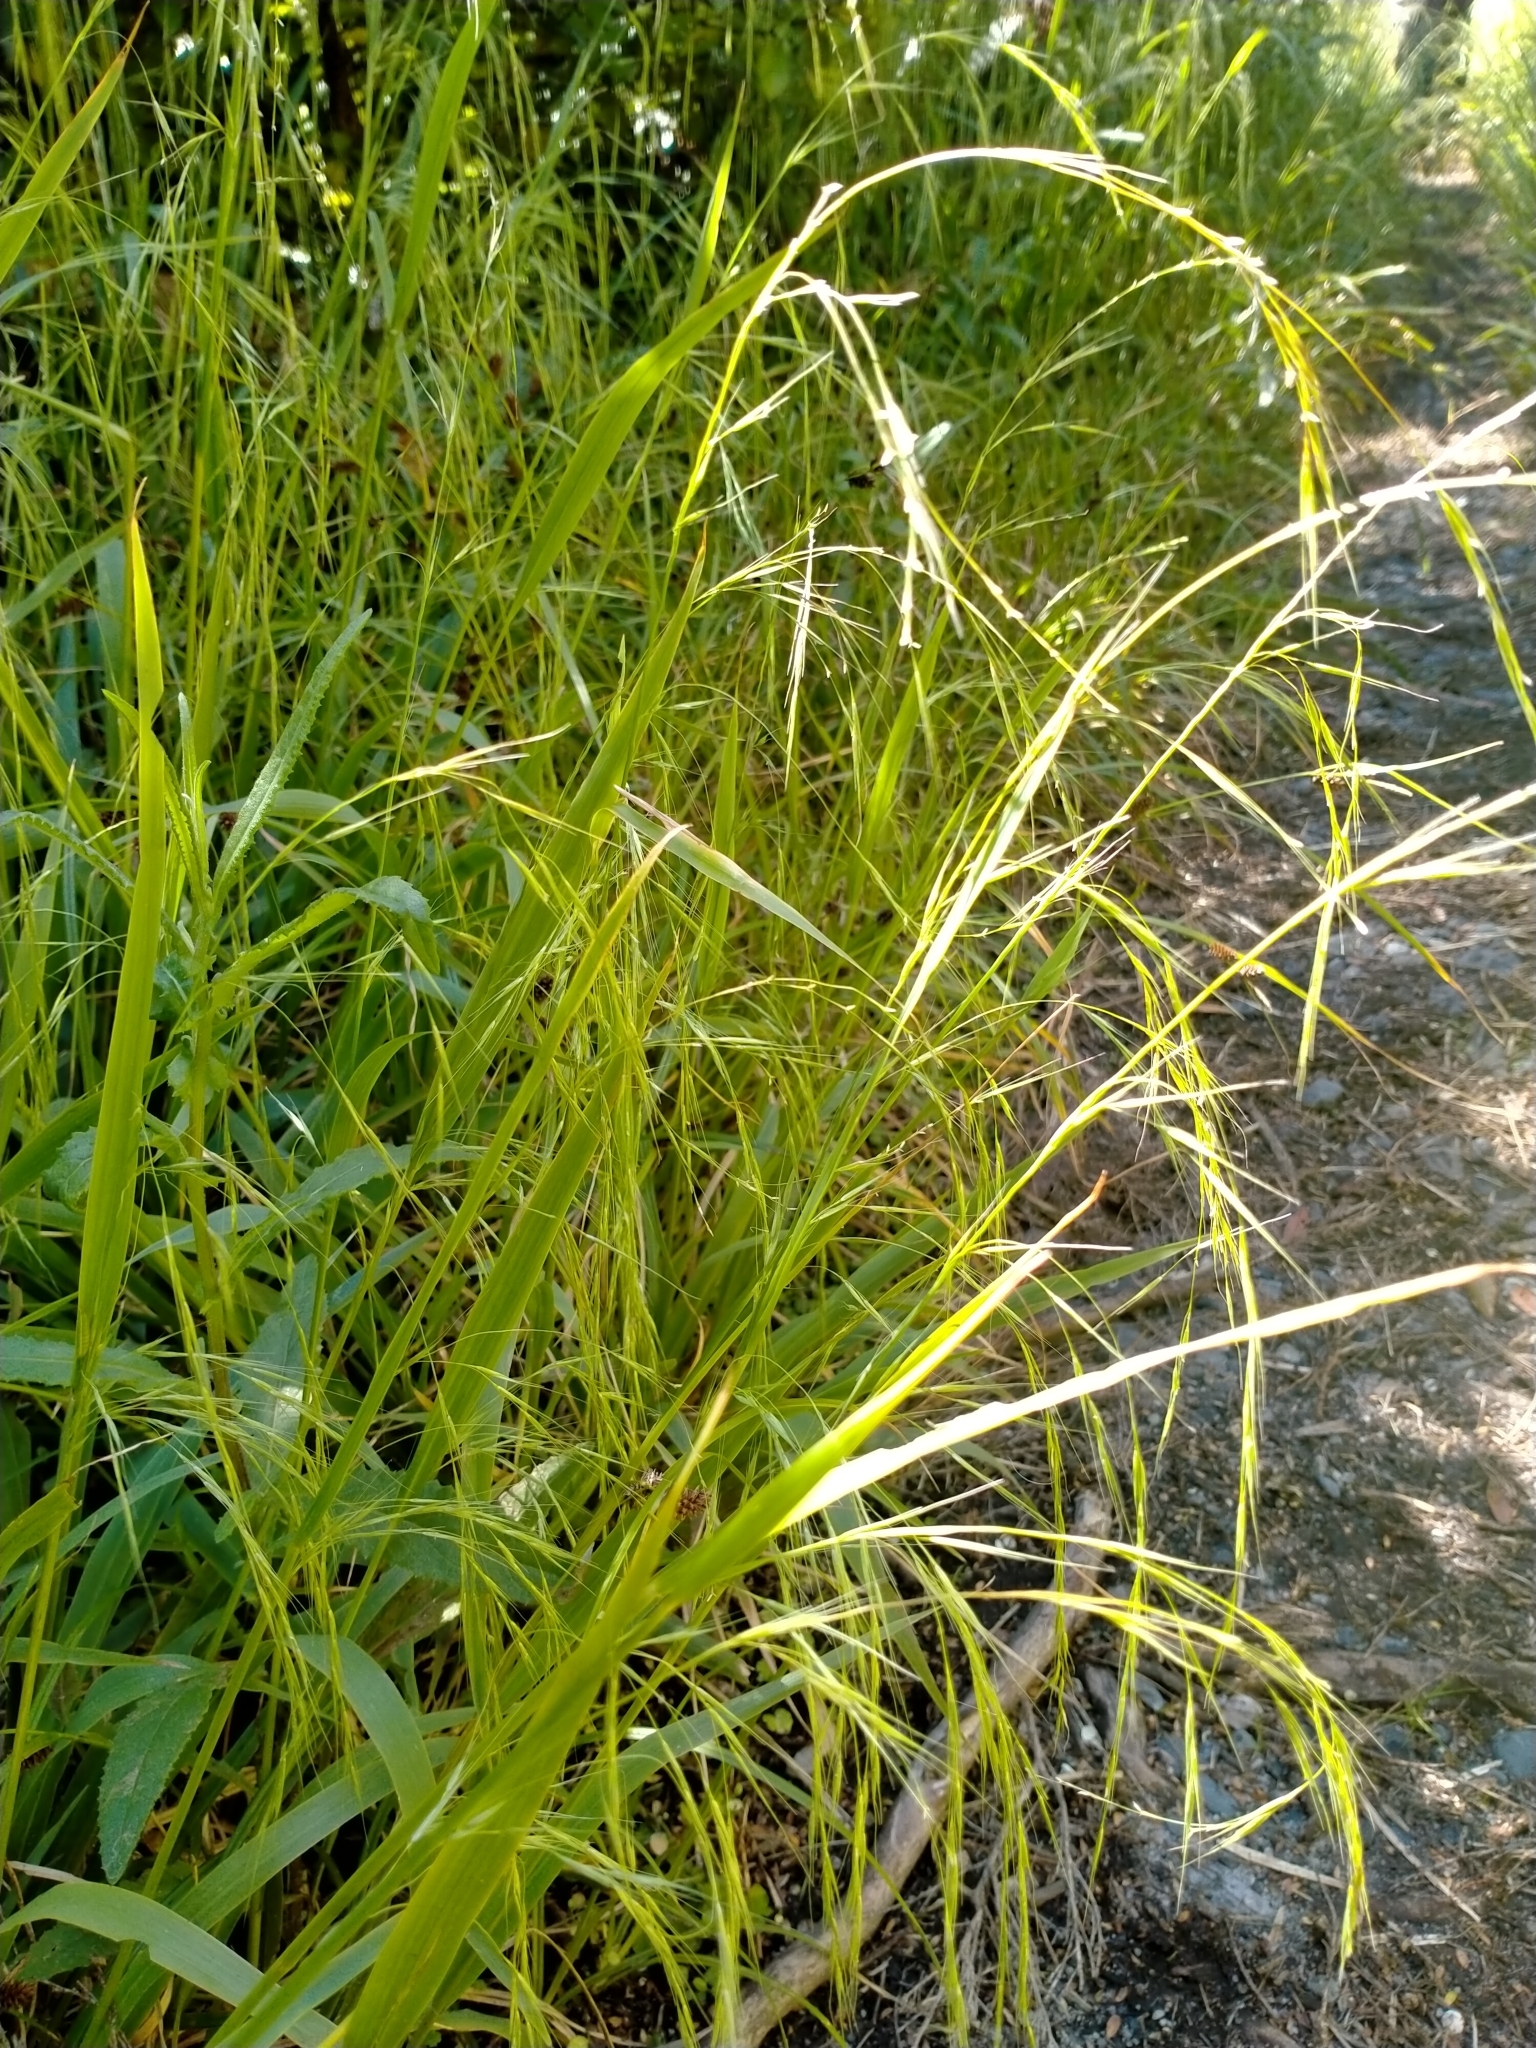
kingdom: Plantae
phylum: Tracheophyta
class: Liliopsida
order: Poales
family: Poaceae
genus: Ehrharta
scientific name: Ehrharta diplax
